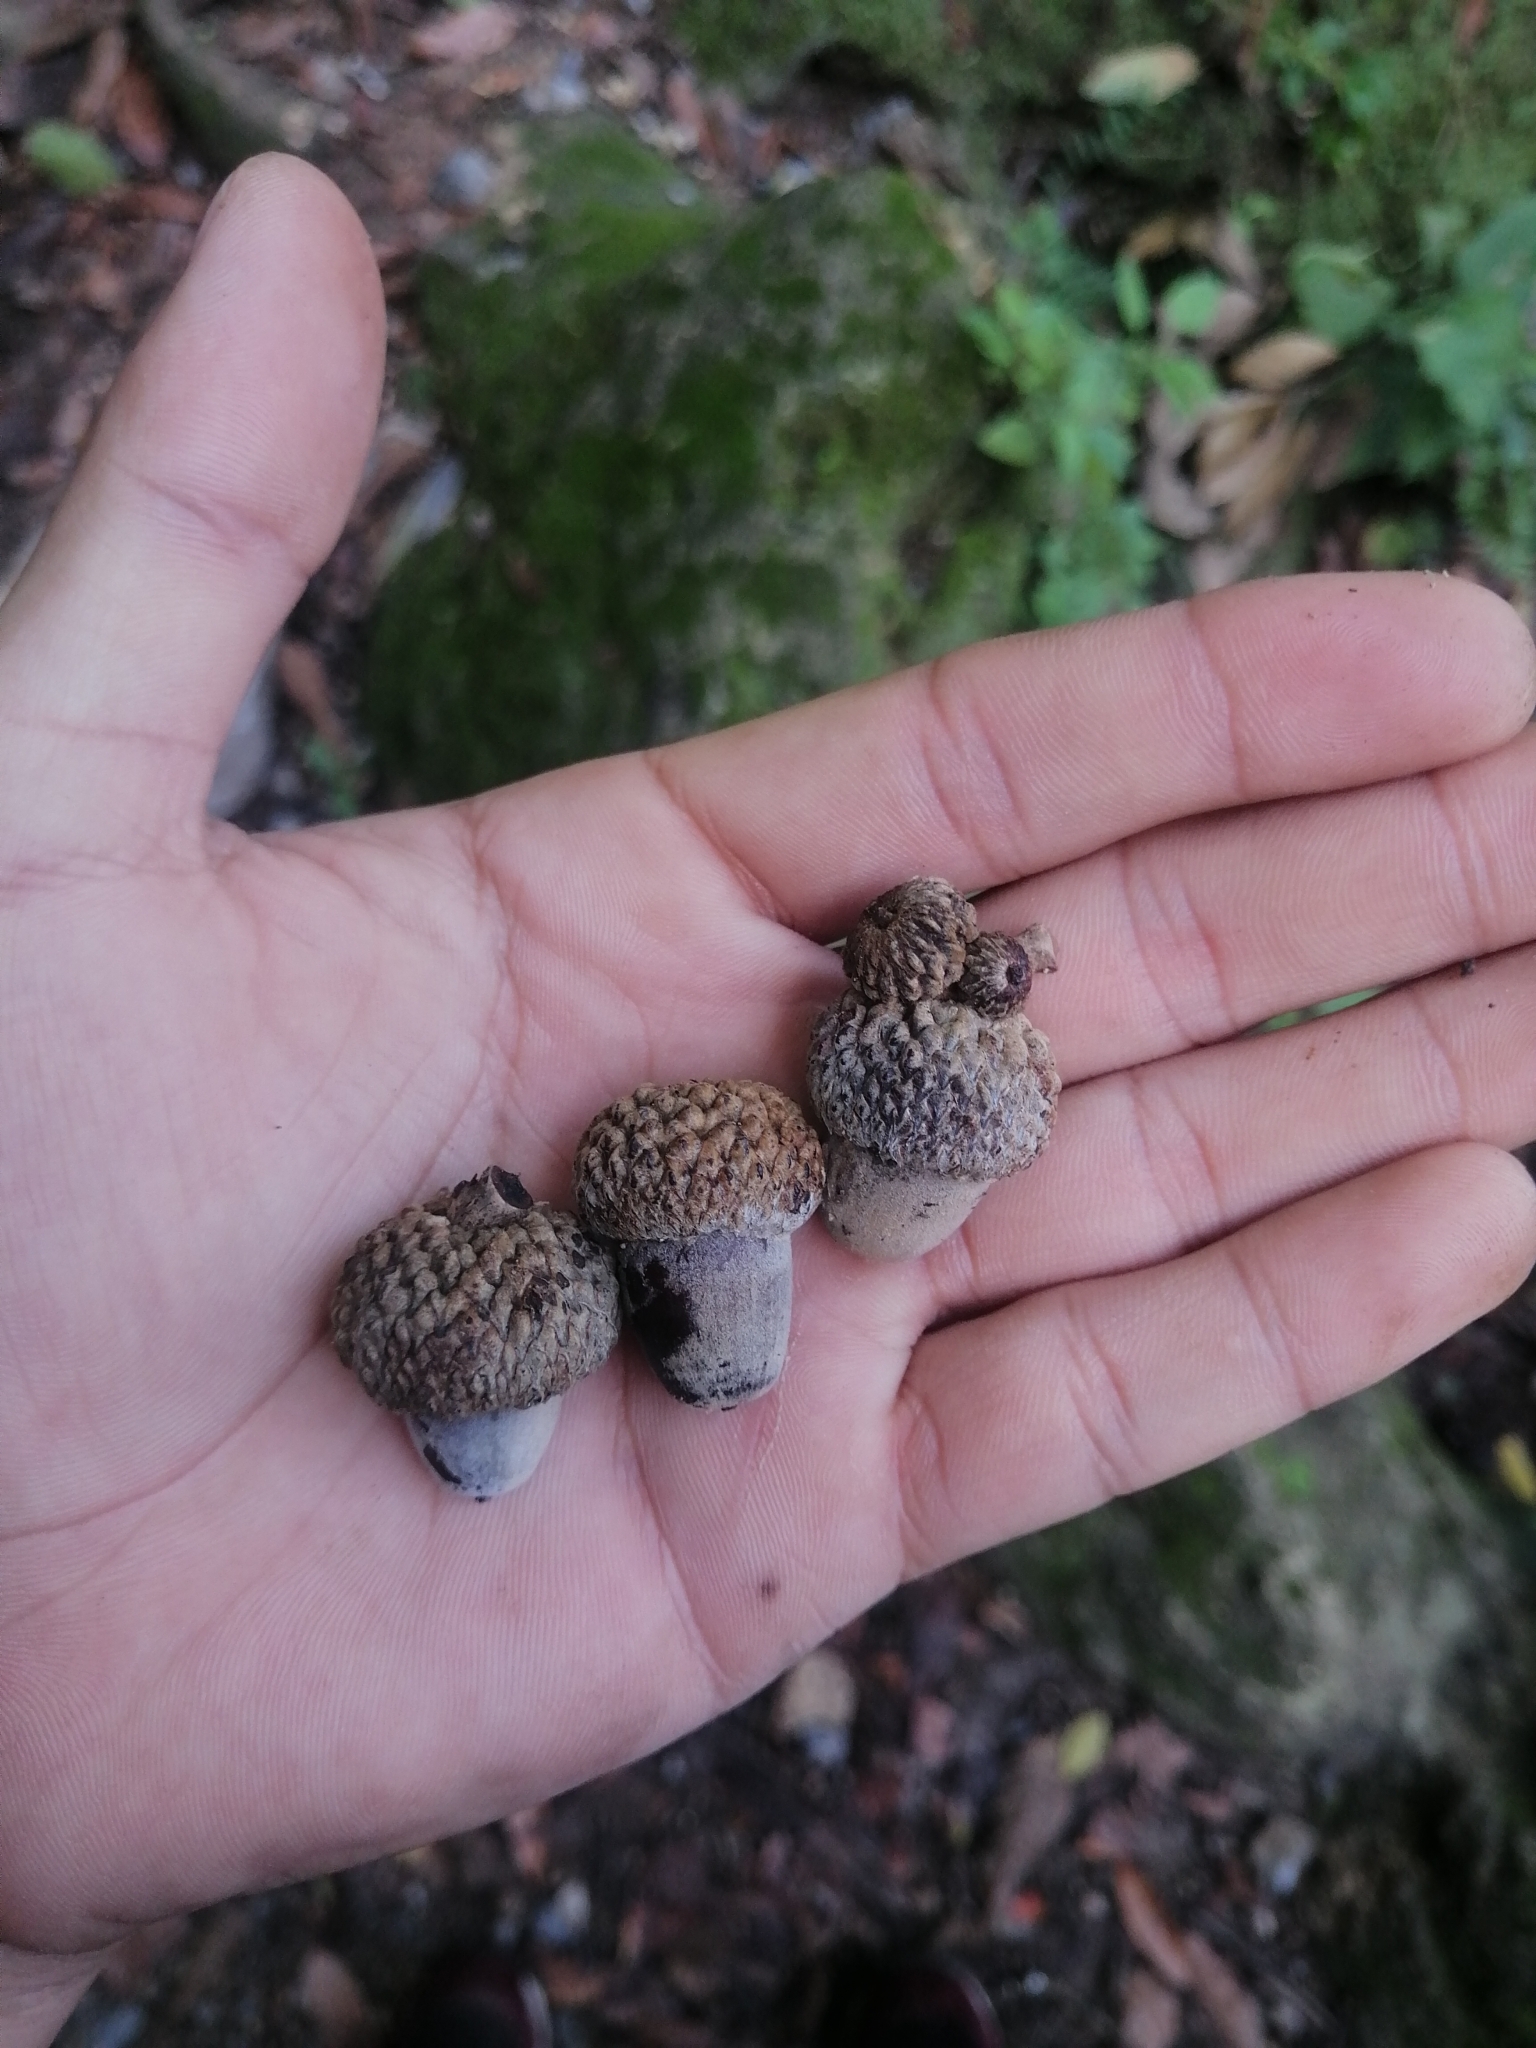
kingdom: Plantae
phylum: Tracheophyta
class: Magnoliopsida
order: Fagales
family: Fagaceae
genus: Quercus
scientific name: Quercus polymorpha
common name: Mexican white oak
